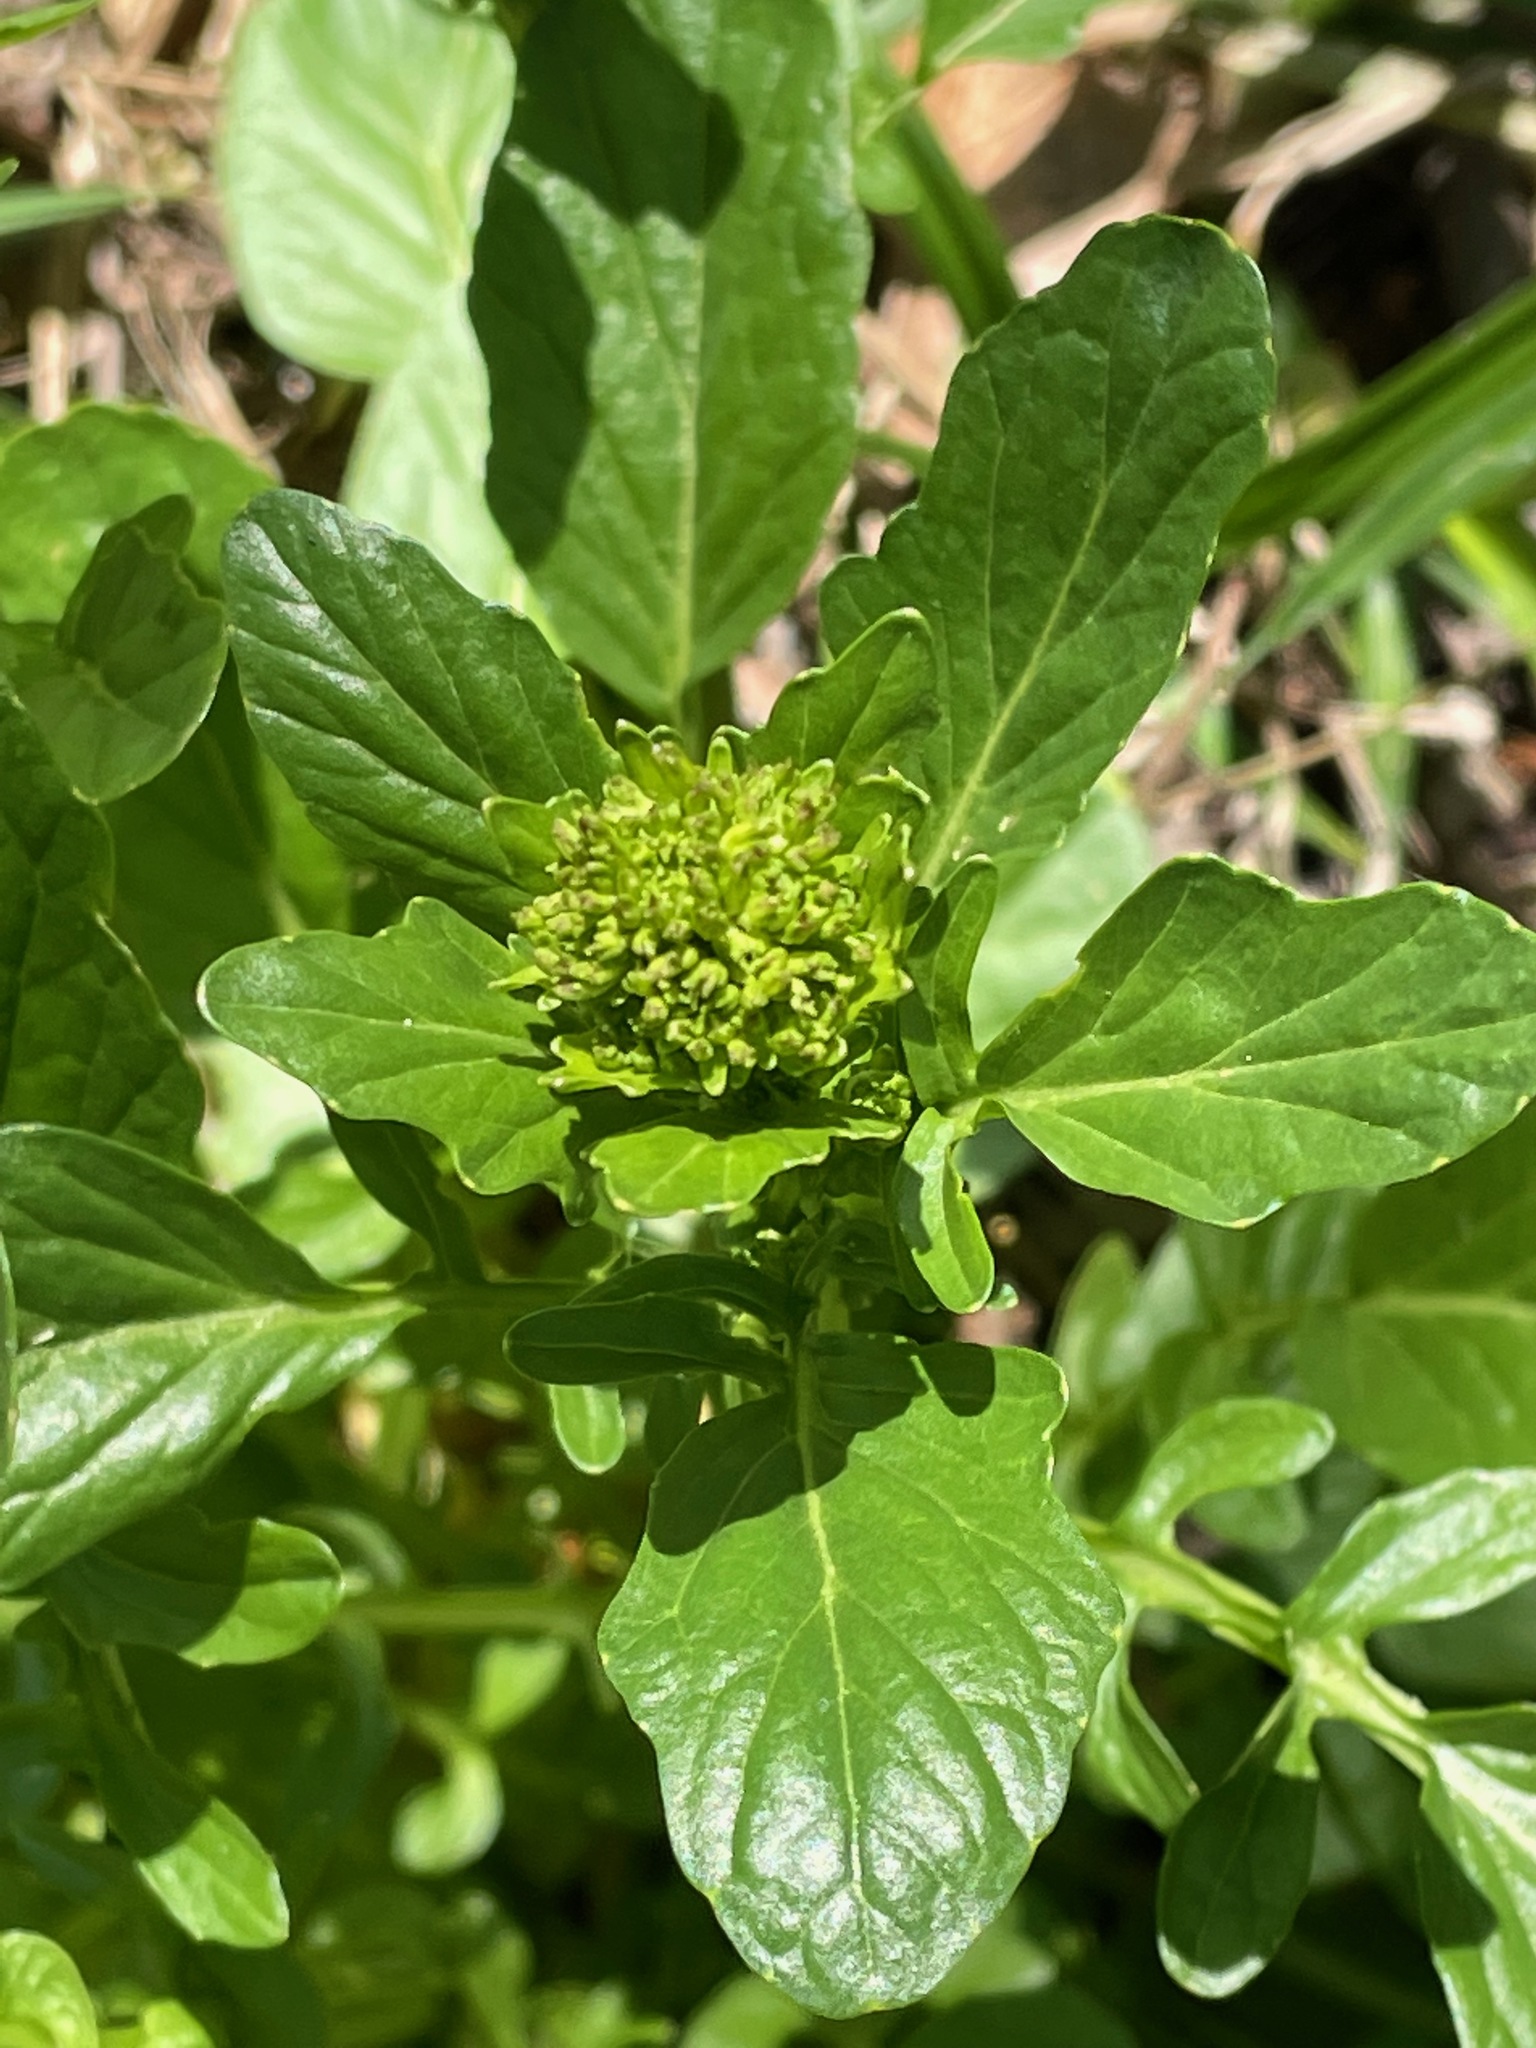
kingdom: Plantae
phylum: Tracheophyta
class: Magnoliopsida
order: Brassicales
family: Brassicaceae
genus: Barbarea
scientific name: Barbarea vulgaris
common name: Cressy-greens
